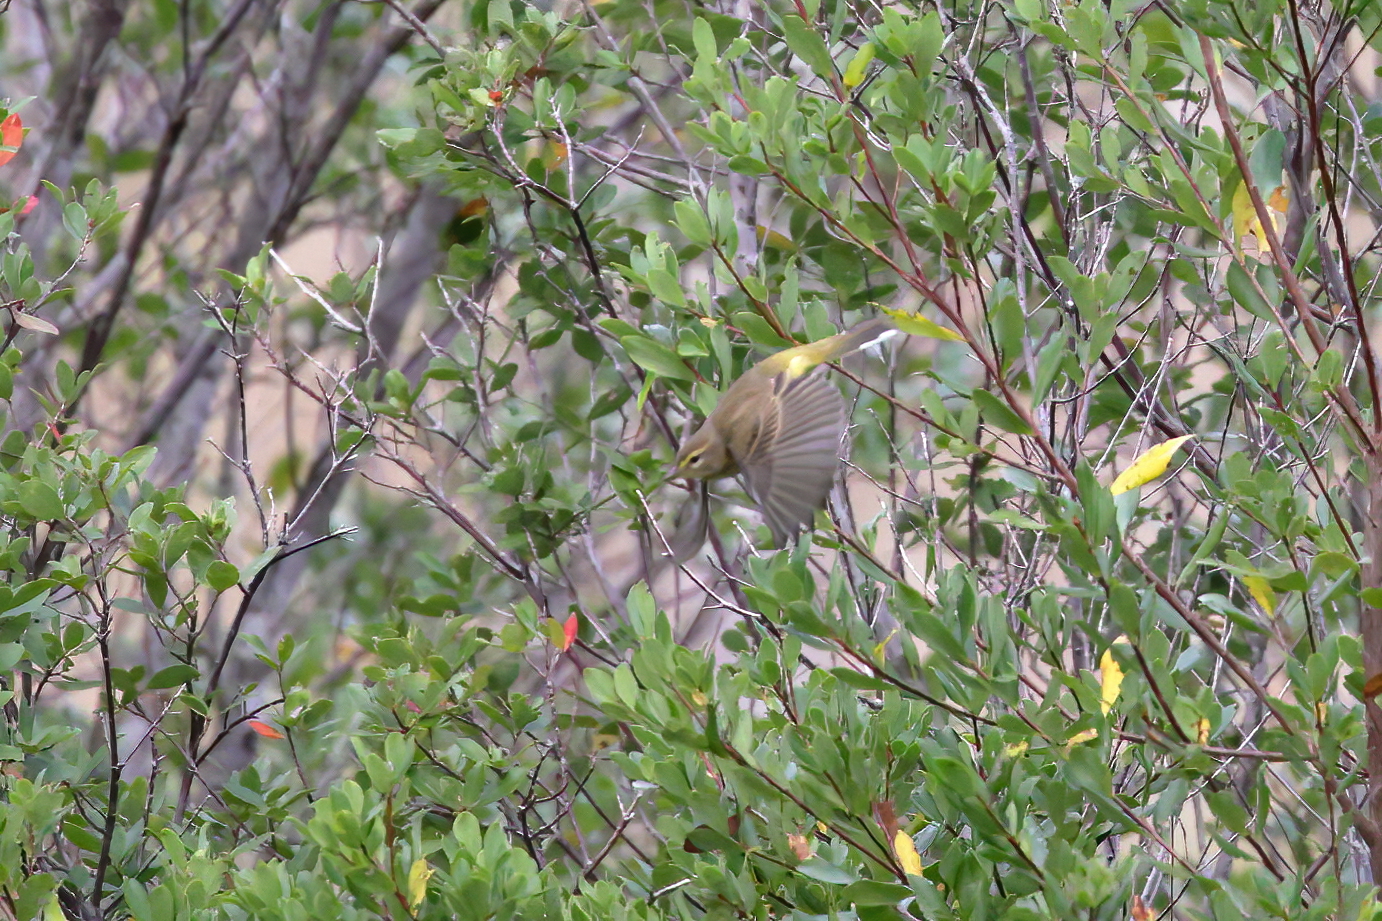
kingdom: Animalia
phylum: Chordata
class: Aves
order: Passeriformes
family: Parulidae
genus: Setophaga
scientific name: Setophaga palmarum
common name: Palm warbler
